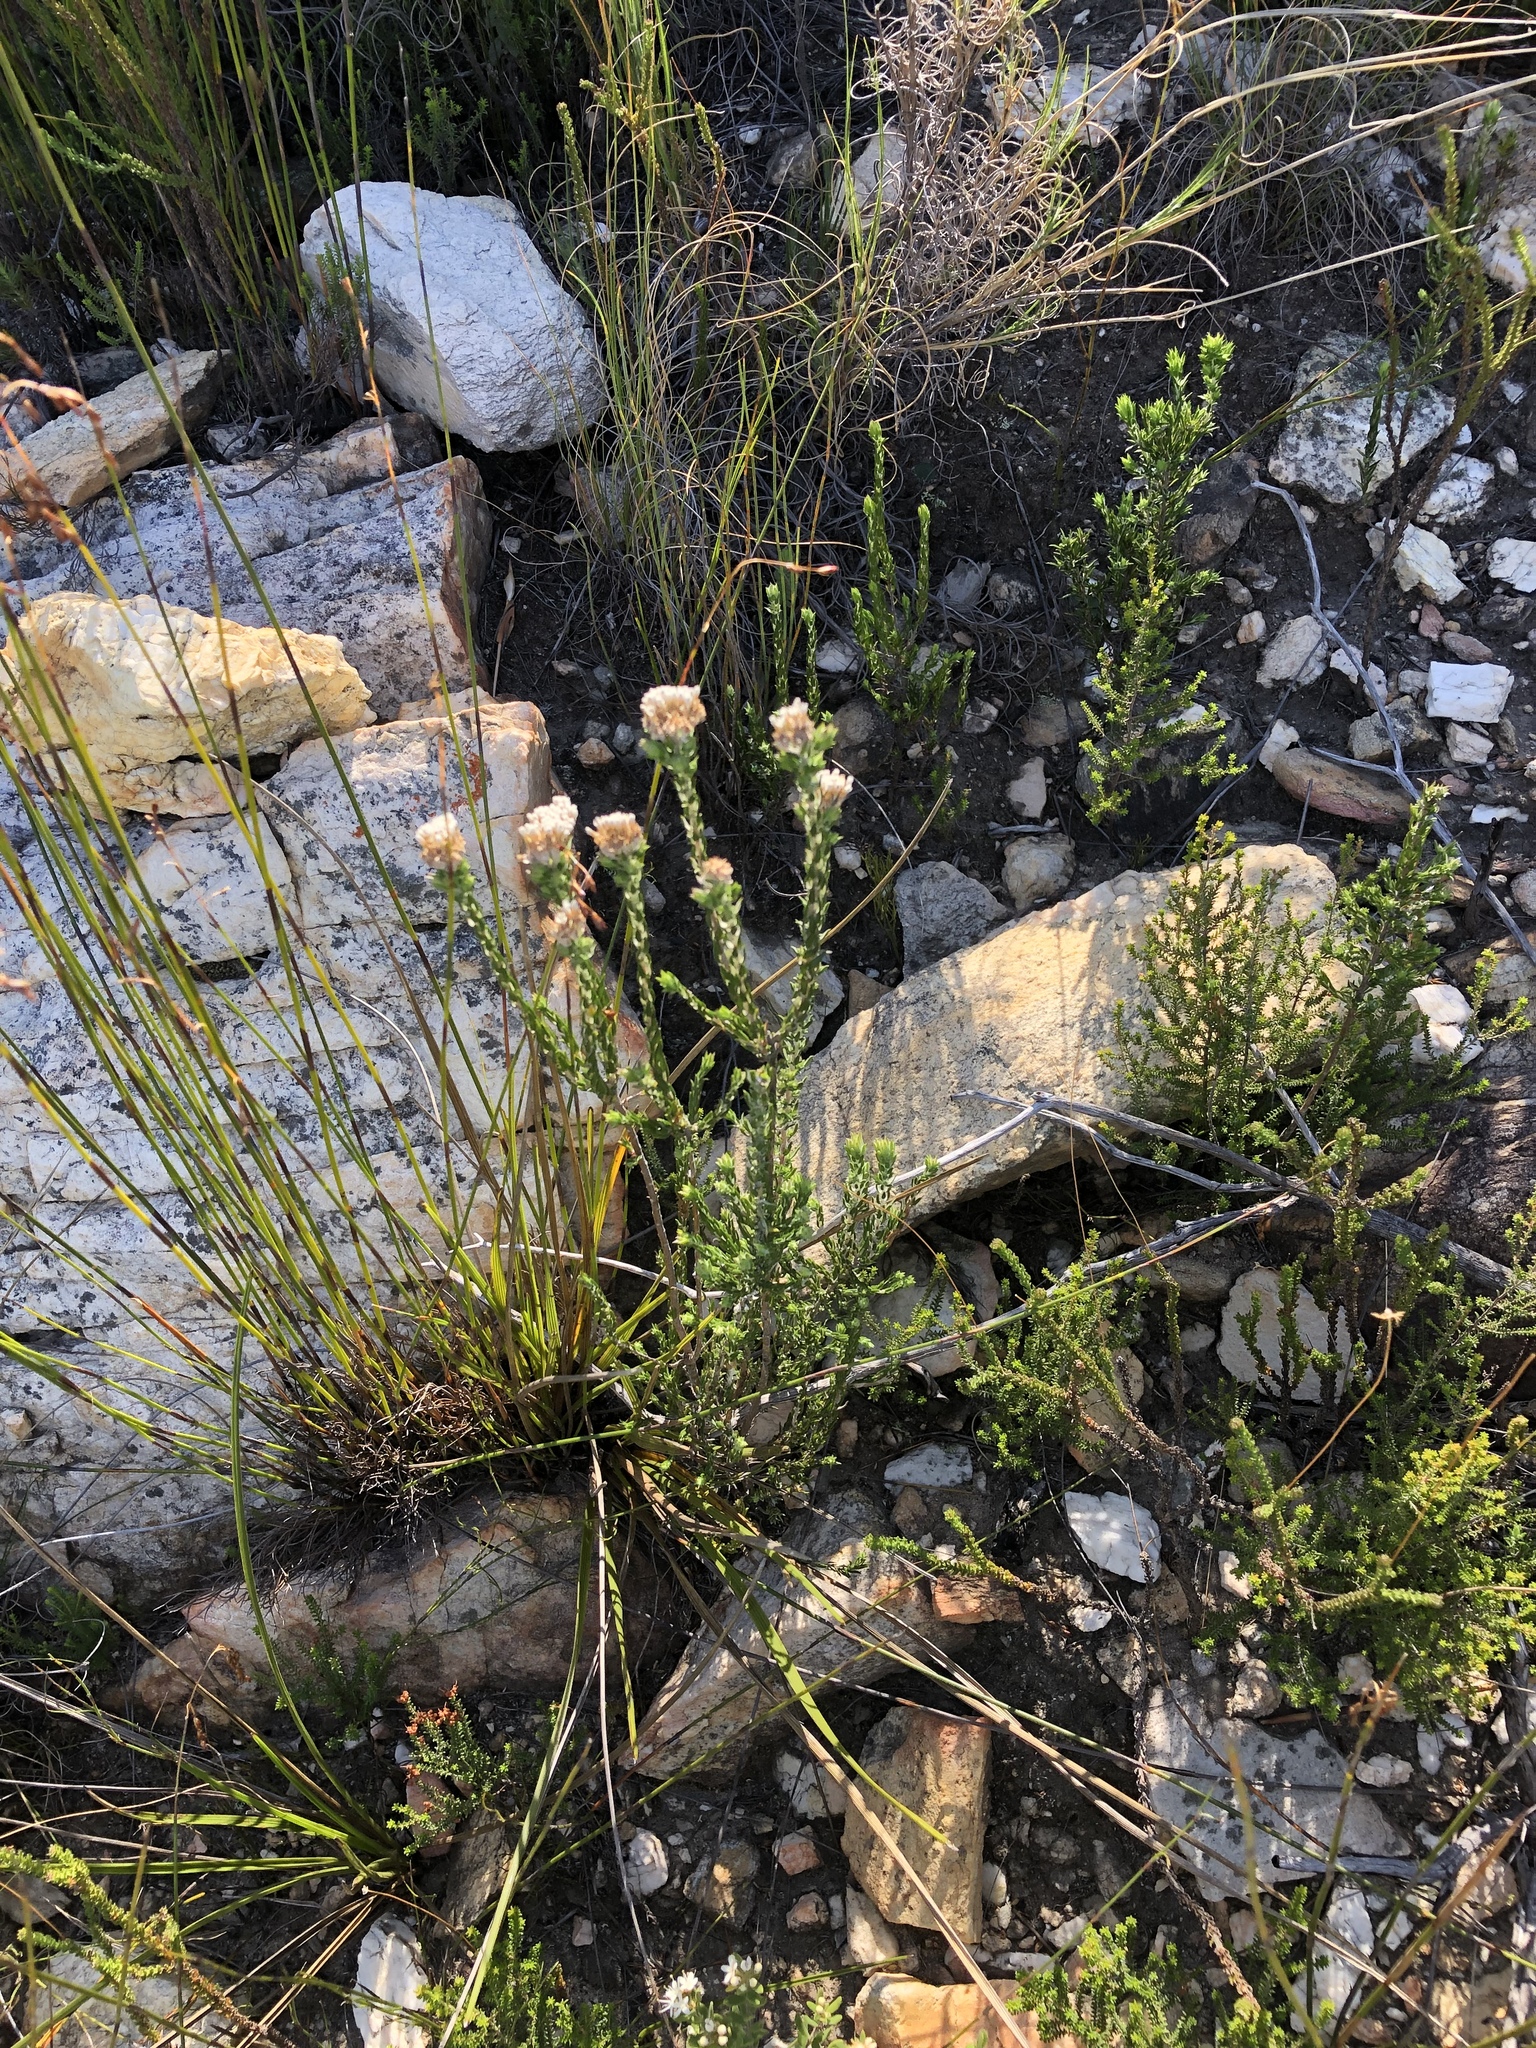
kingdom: Plantae
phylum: Tracheophyta
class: Magnoliopsida
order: Asterales
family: Asteraceae
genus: Metalasia
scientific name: Metalasia pulcherrima
